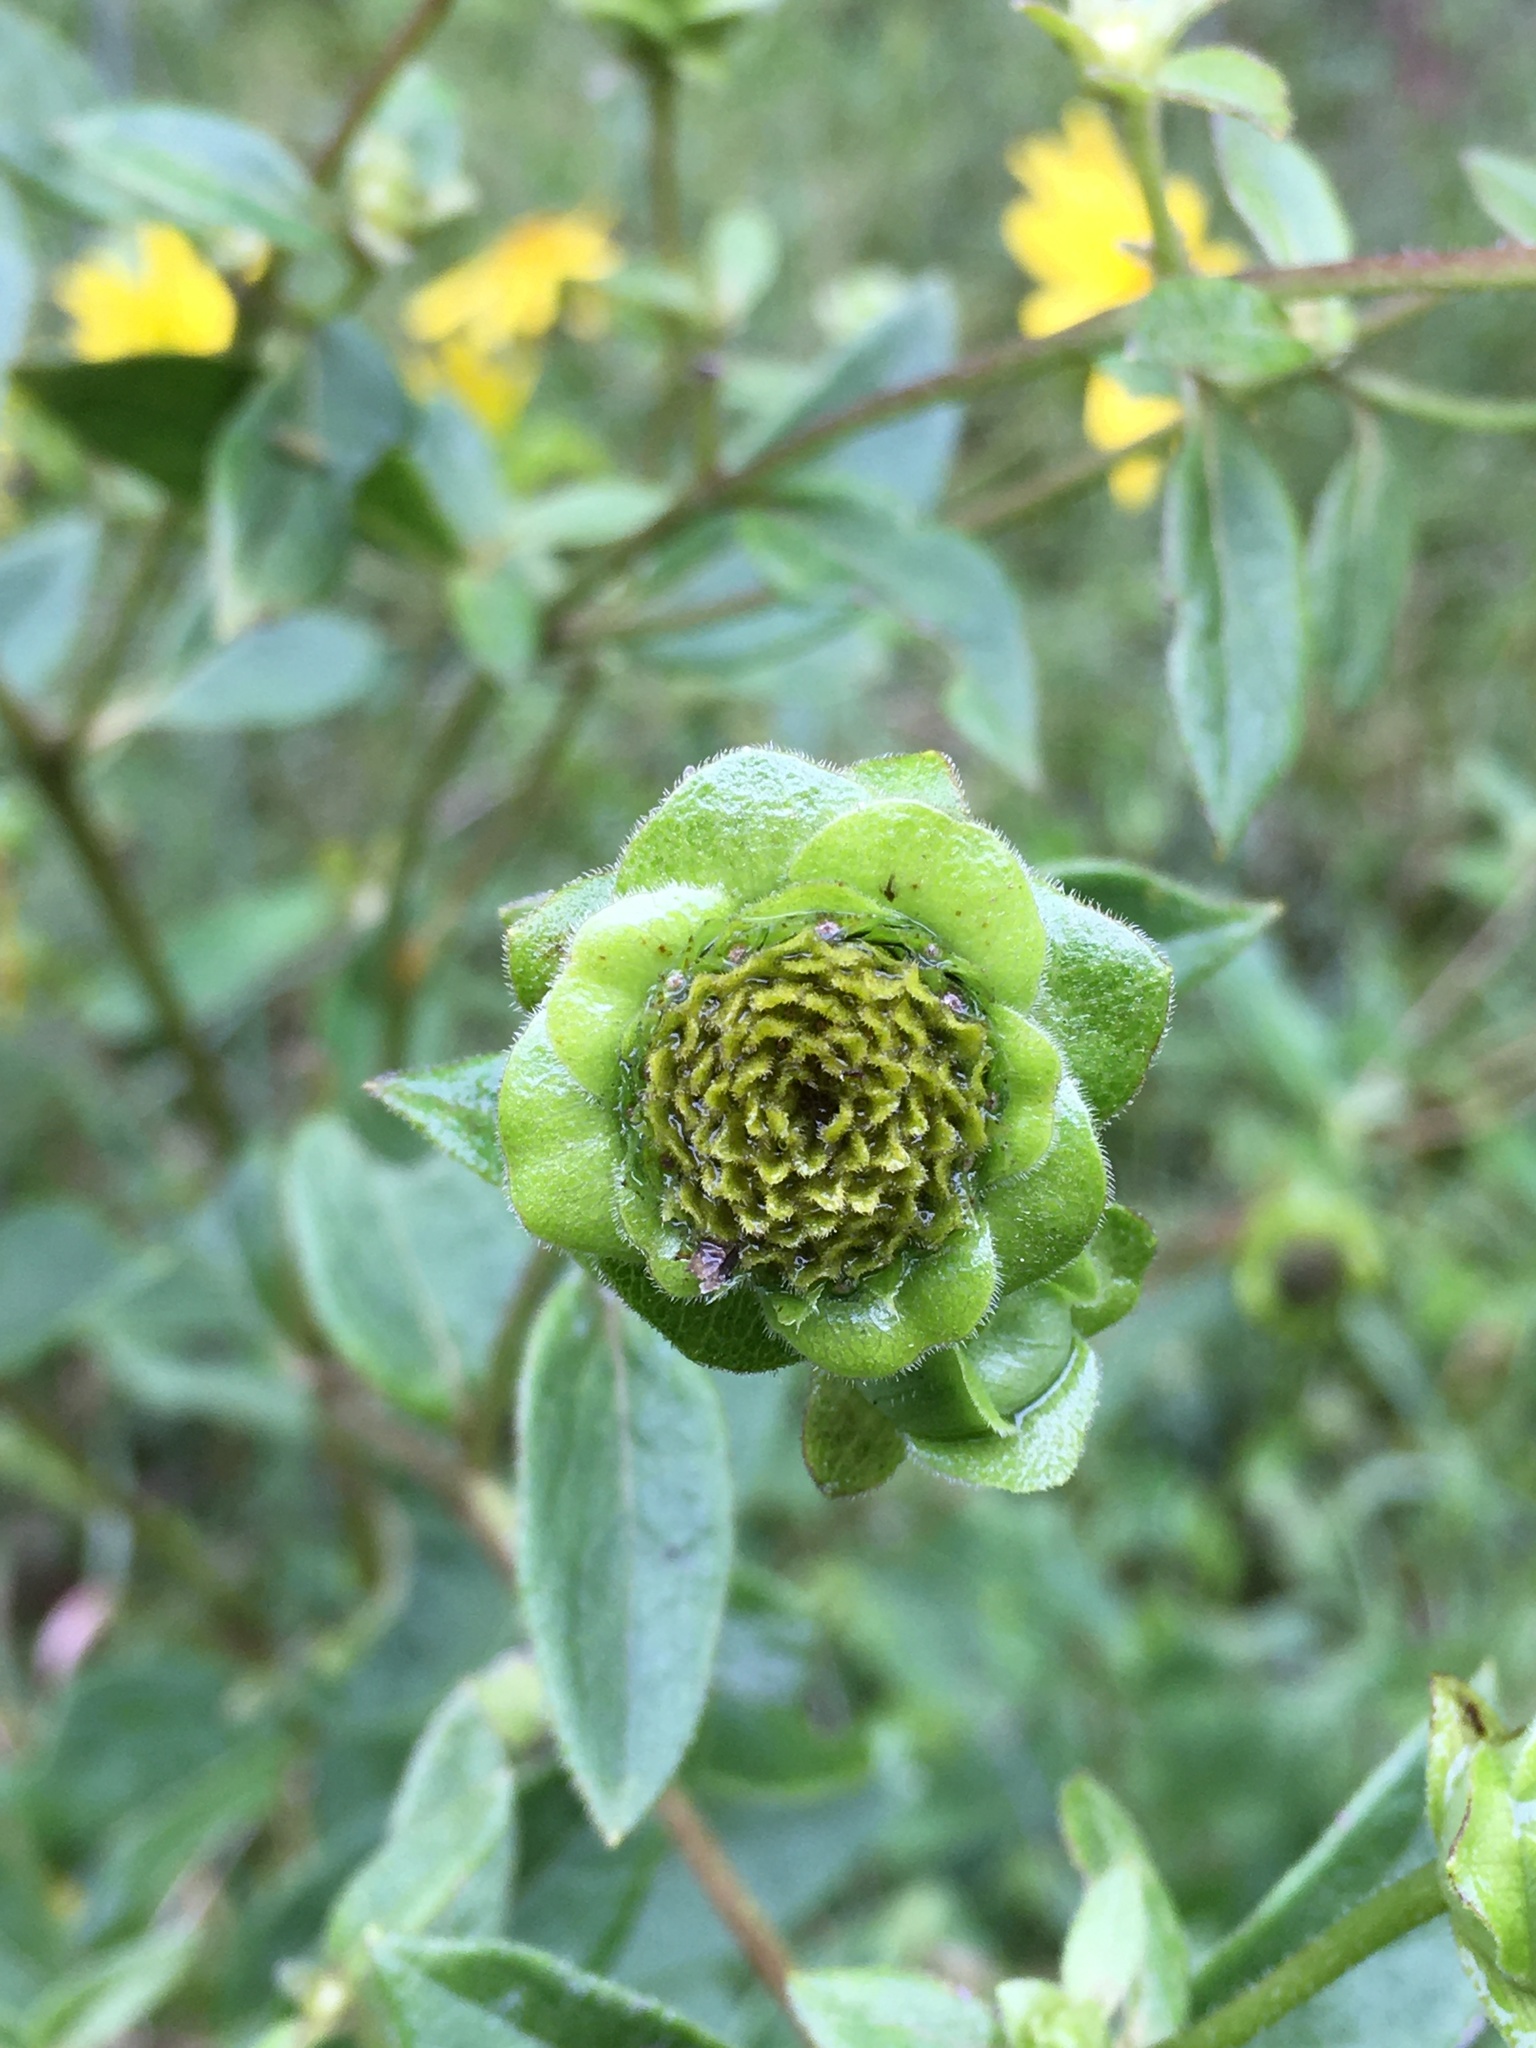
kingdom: Plantae
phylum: Tracheophyta
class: Magnoliopsida
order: Asterales
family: Asteraceae
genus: Silphium
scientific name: Silphium asteriscus
